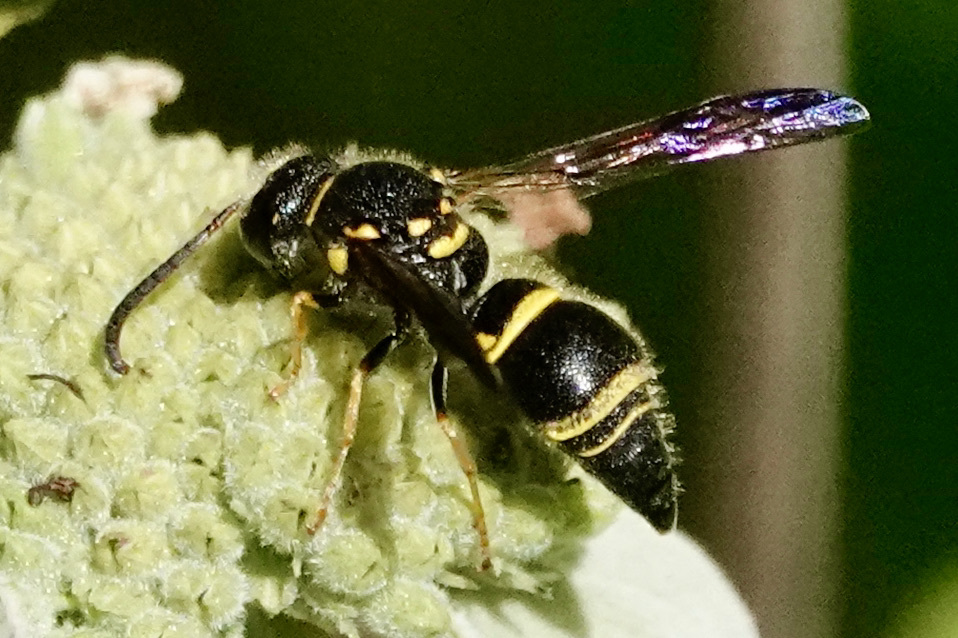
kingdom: Animalia
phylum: Arthropoda
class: Insecta
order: Hymenoptera
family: Vespidae
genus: Ancistrocerus
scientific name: Ancistrocerus campestris
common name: Smiling mason wasp
